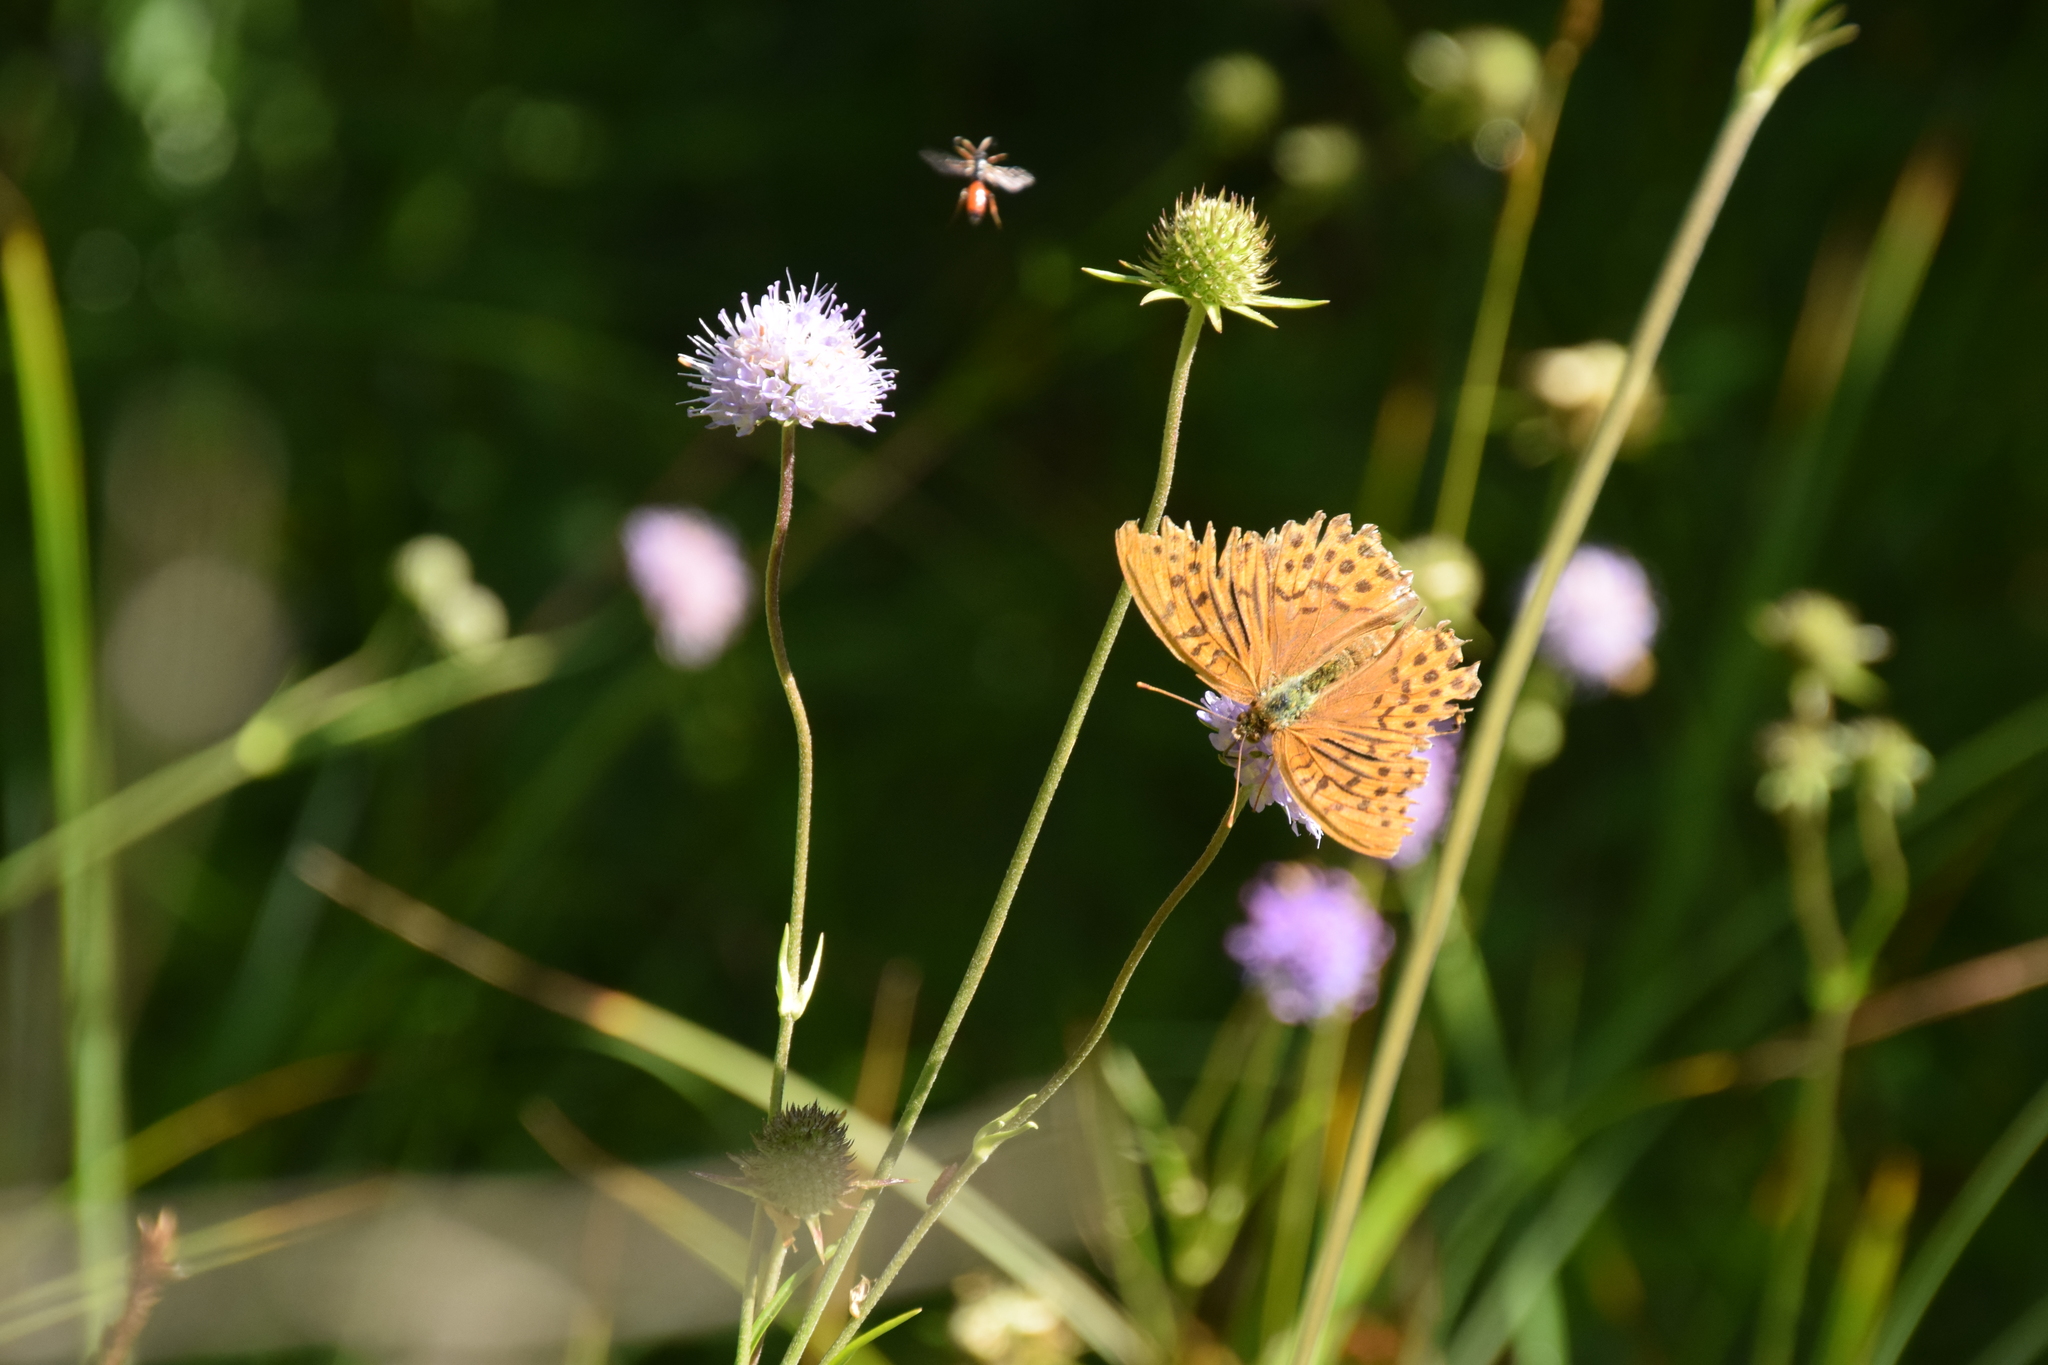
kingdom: Animalia
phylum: Arthropoda
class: Insecta
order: Lepidoptera
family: Nymphalidae
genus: Argynnis
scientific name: Argynnis paphia
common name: Silver-washed fritillary
